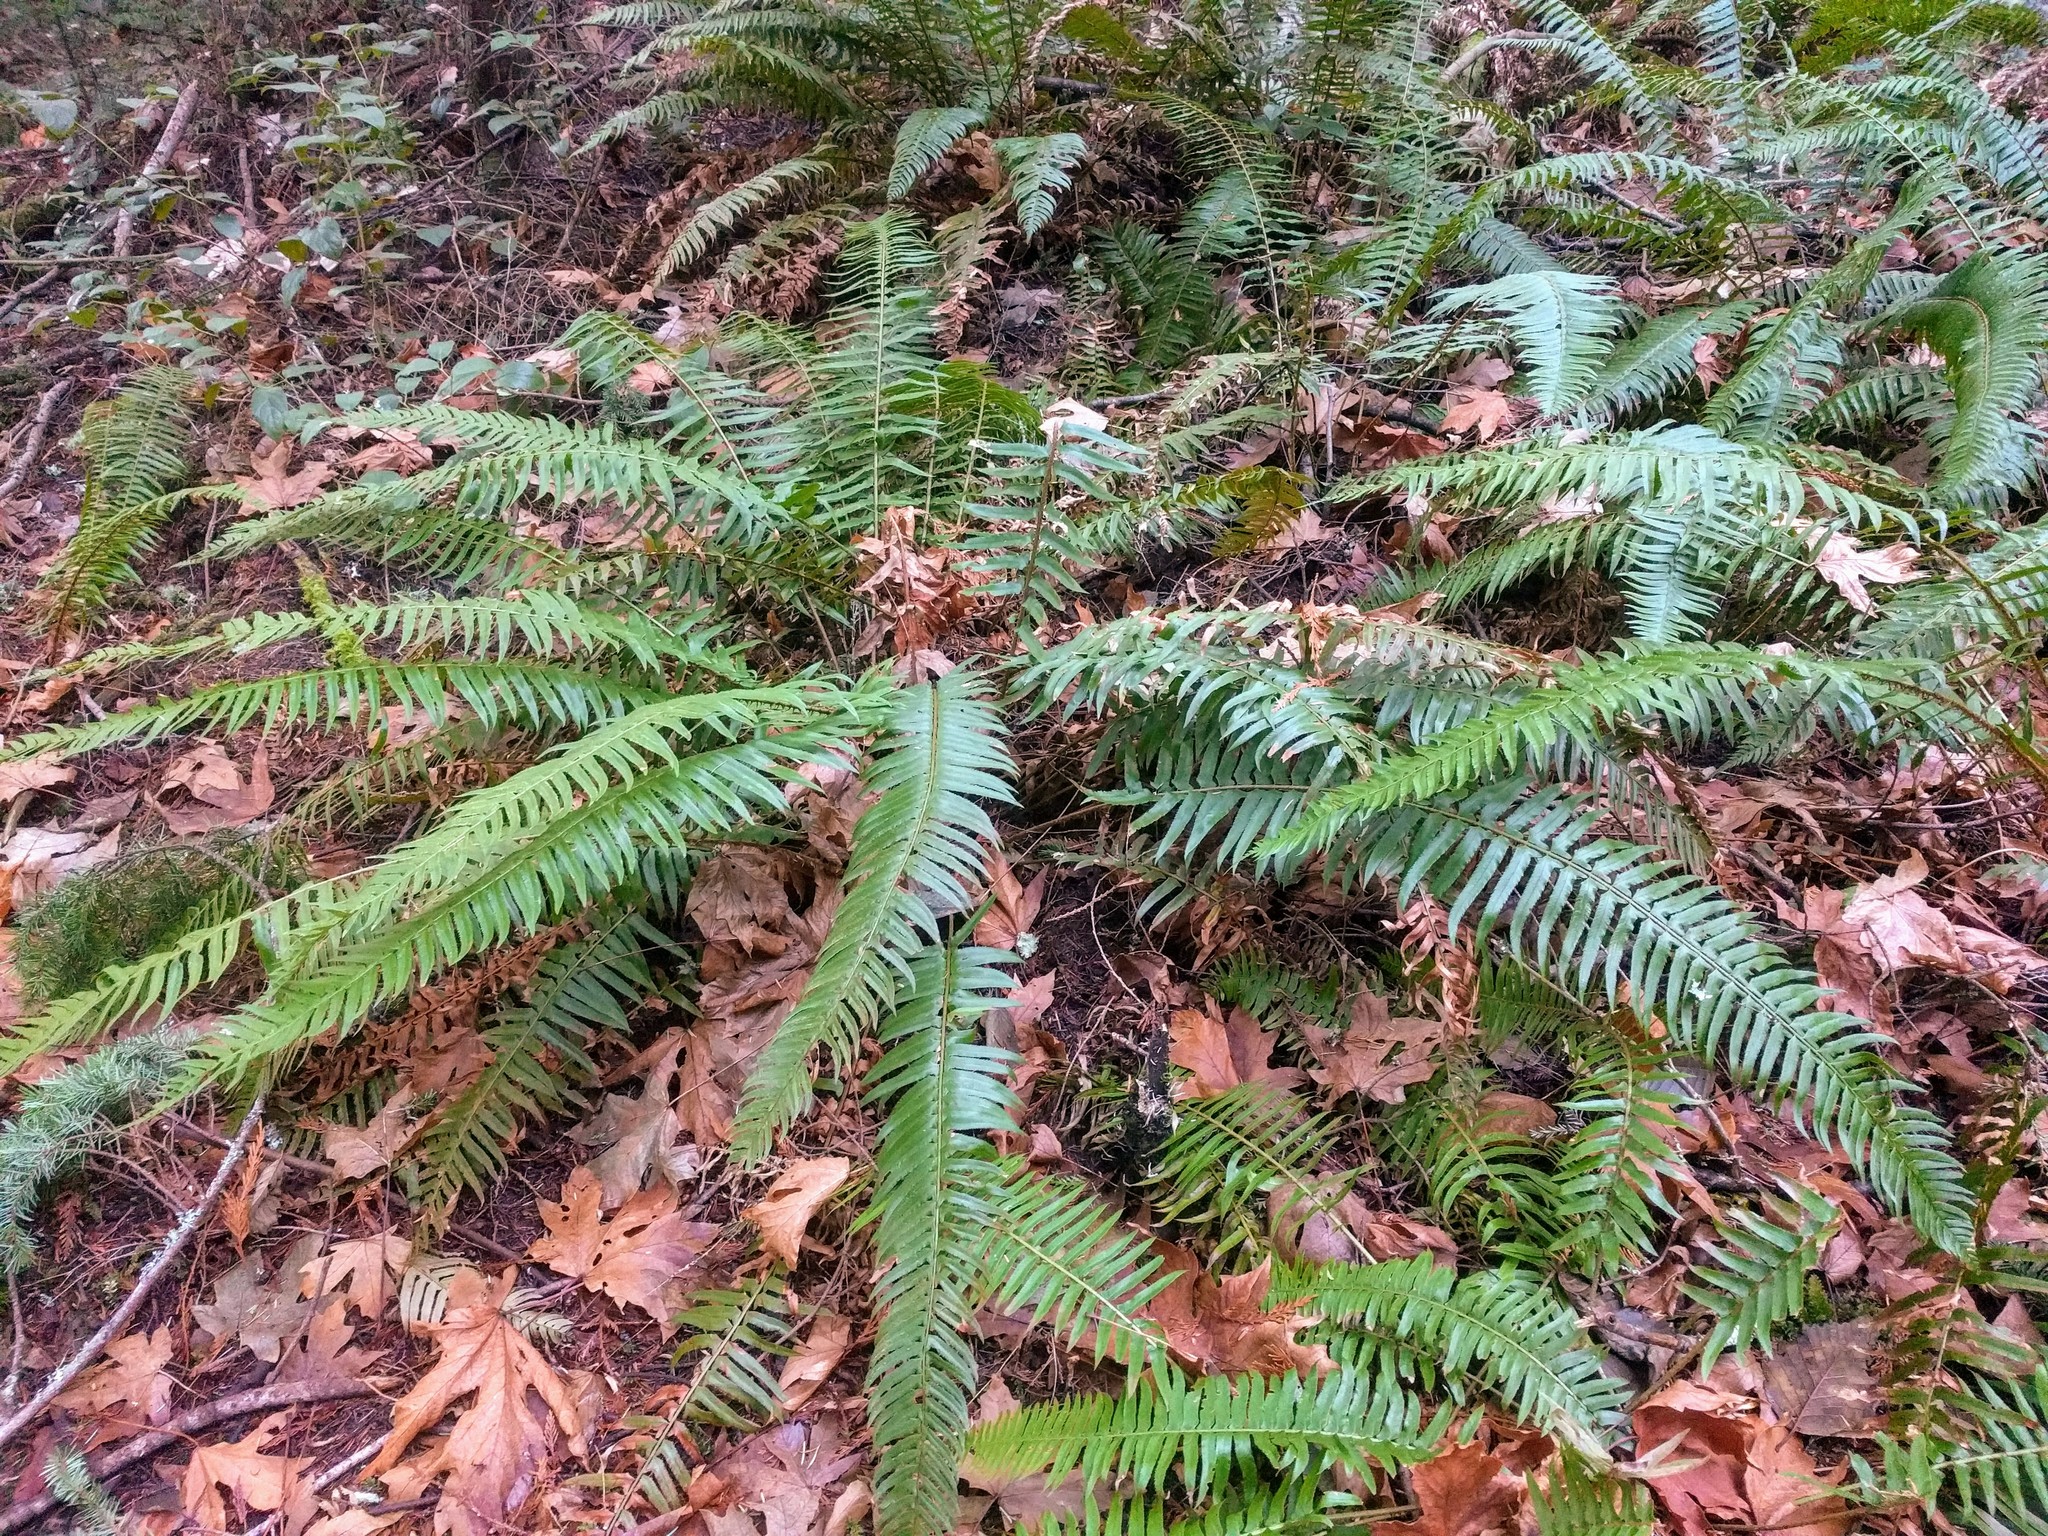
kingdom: Plantae
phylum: Tracheophyta
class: Polypodiopsida
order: Polypodiales
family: Dryopteridaceae
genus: Polystichum
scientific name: Polystichum munitum
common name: Western sword-fern
